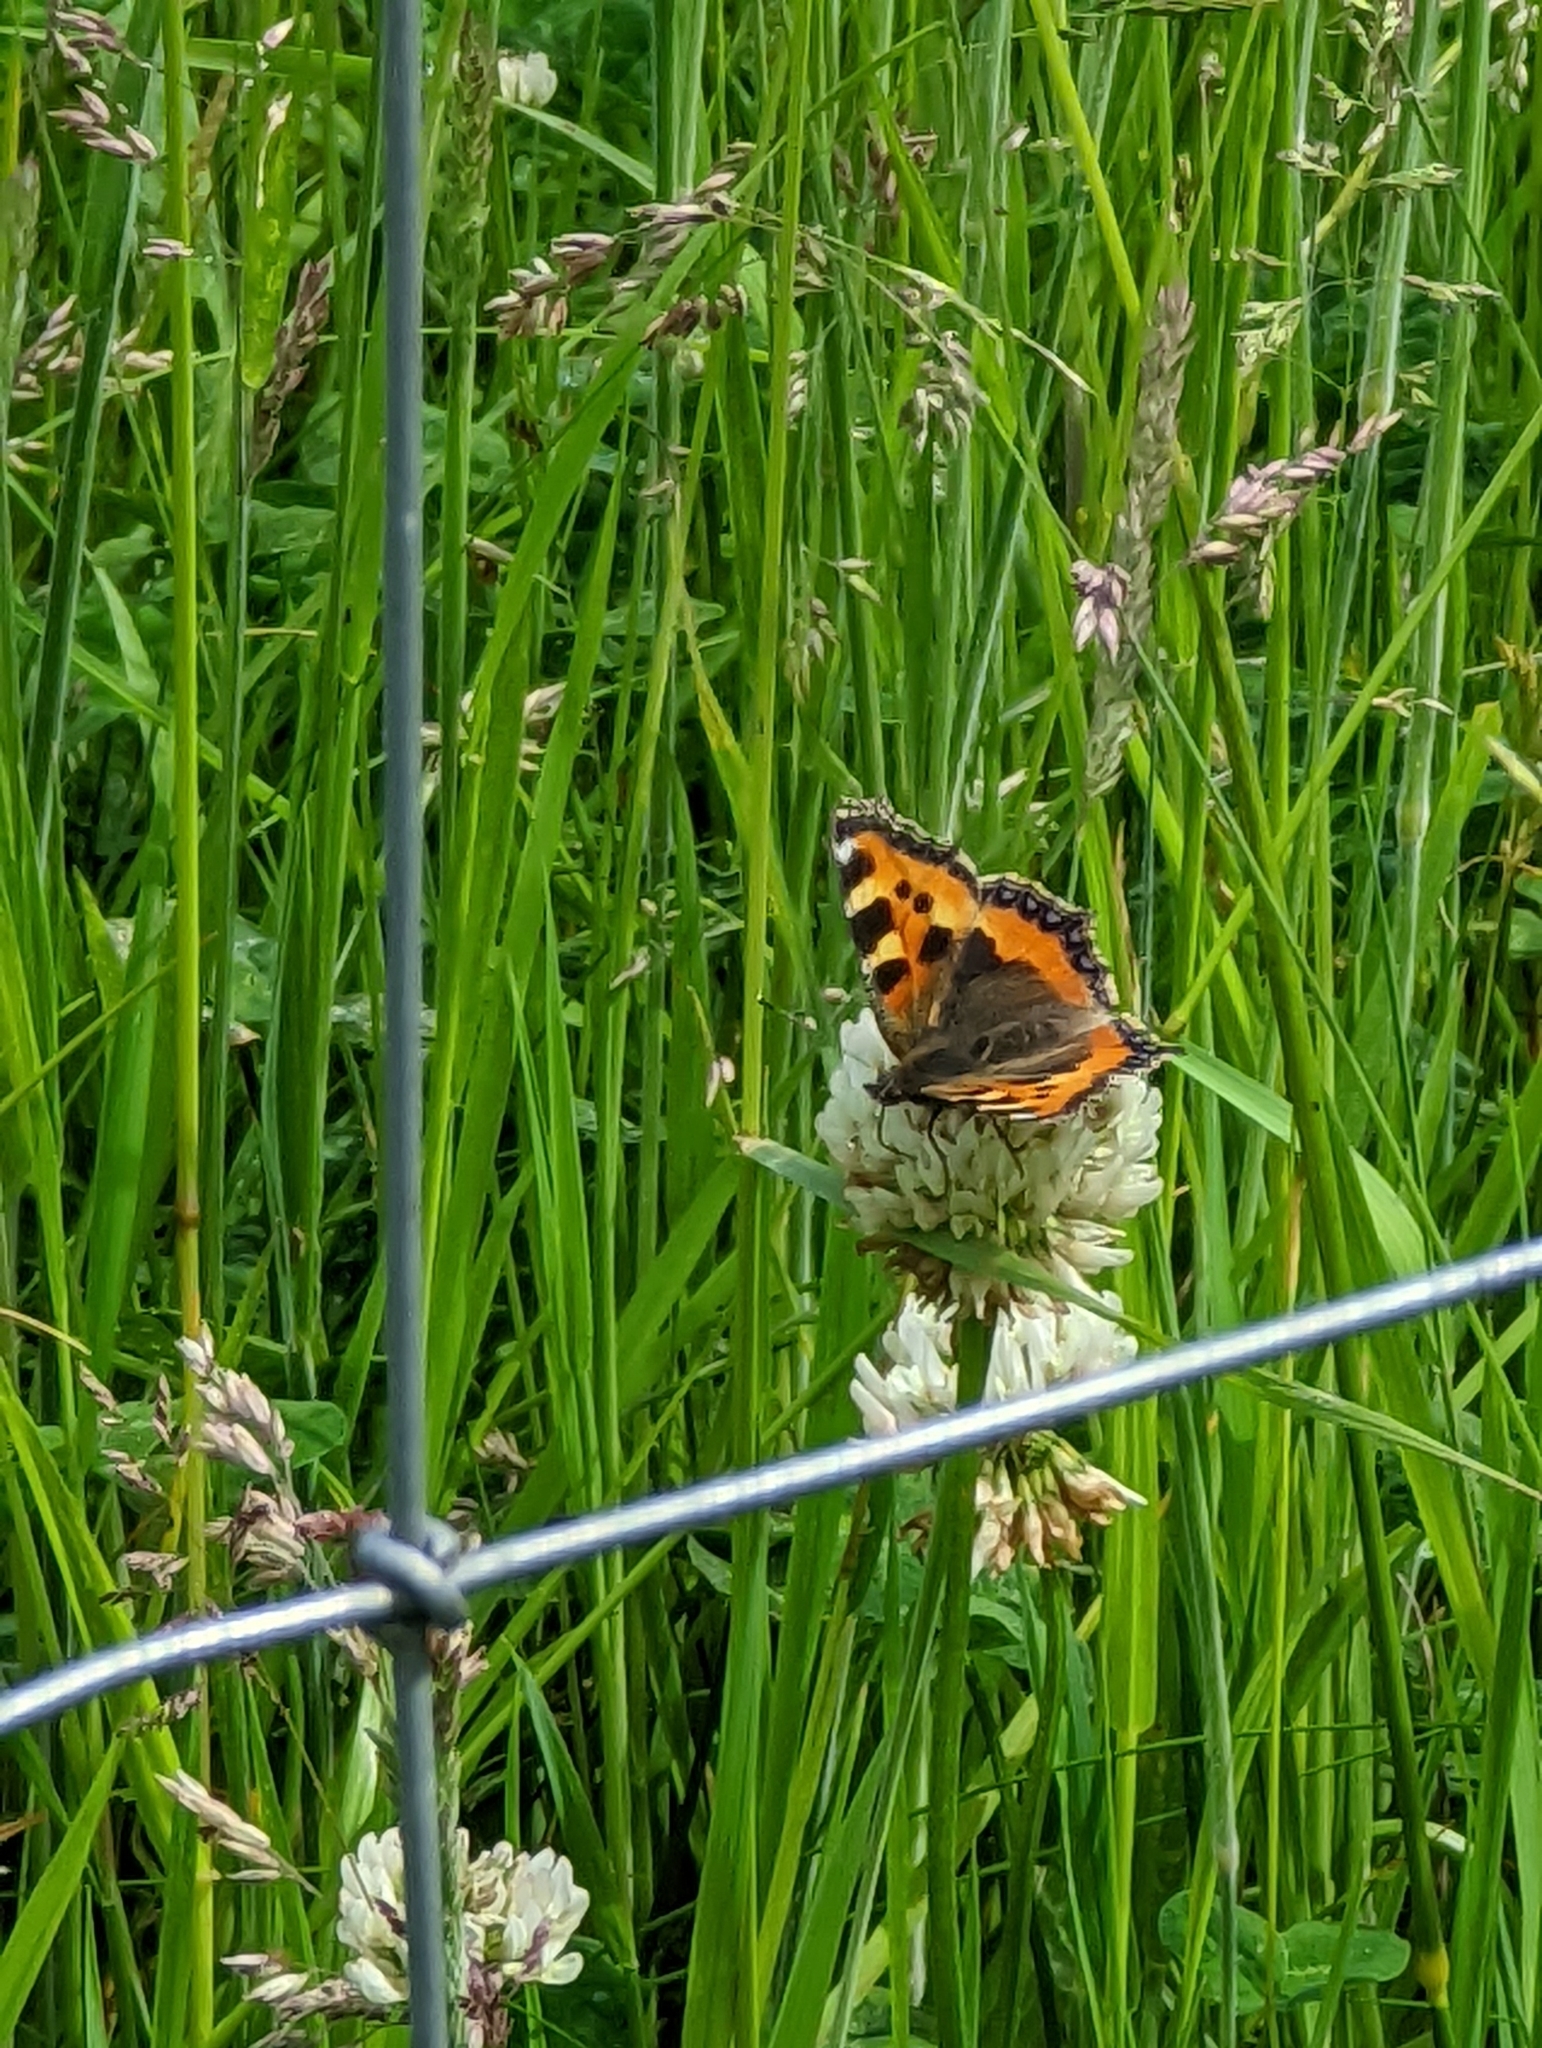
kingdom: Animalia
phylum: Arthropoda
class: Insecta
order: Lepidoptera
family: Nymphalidae
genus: Aglais
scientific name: Aglais urticae
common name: Small tortoiseshell
